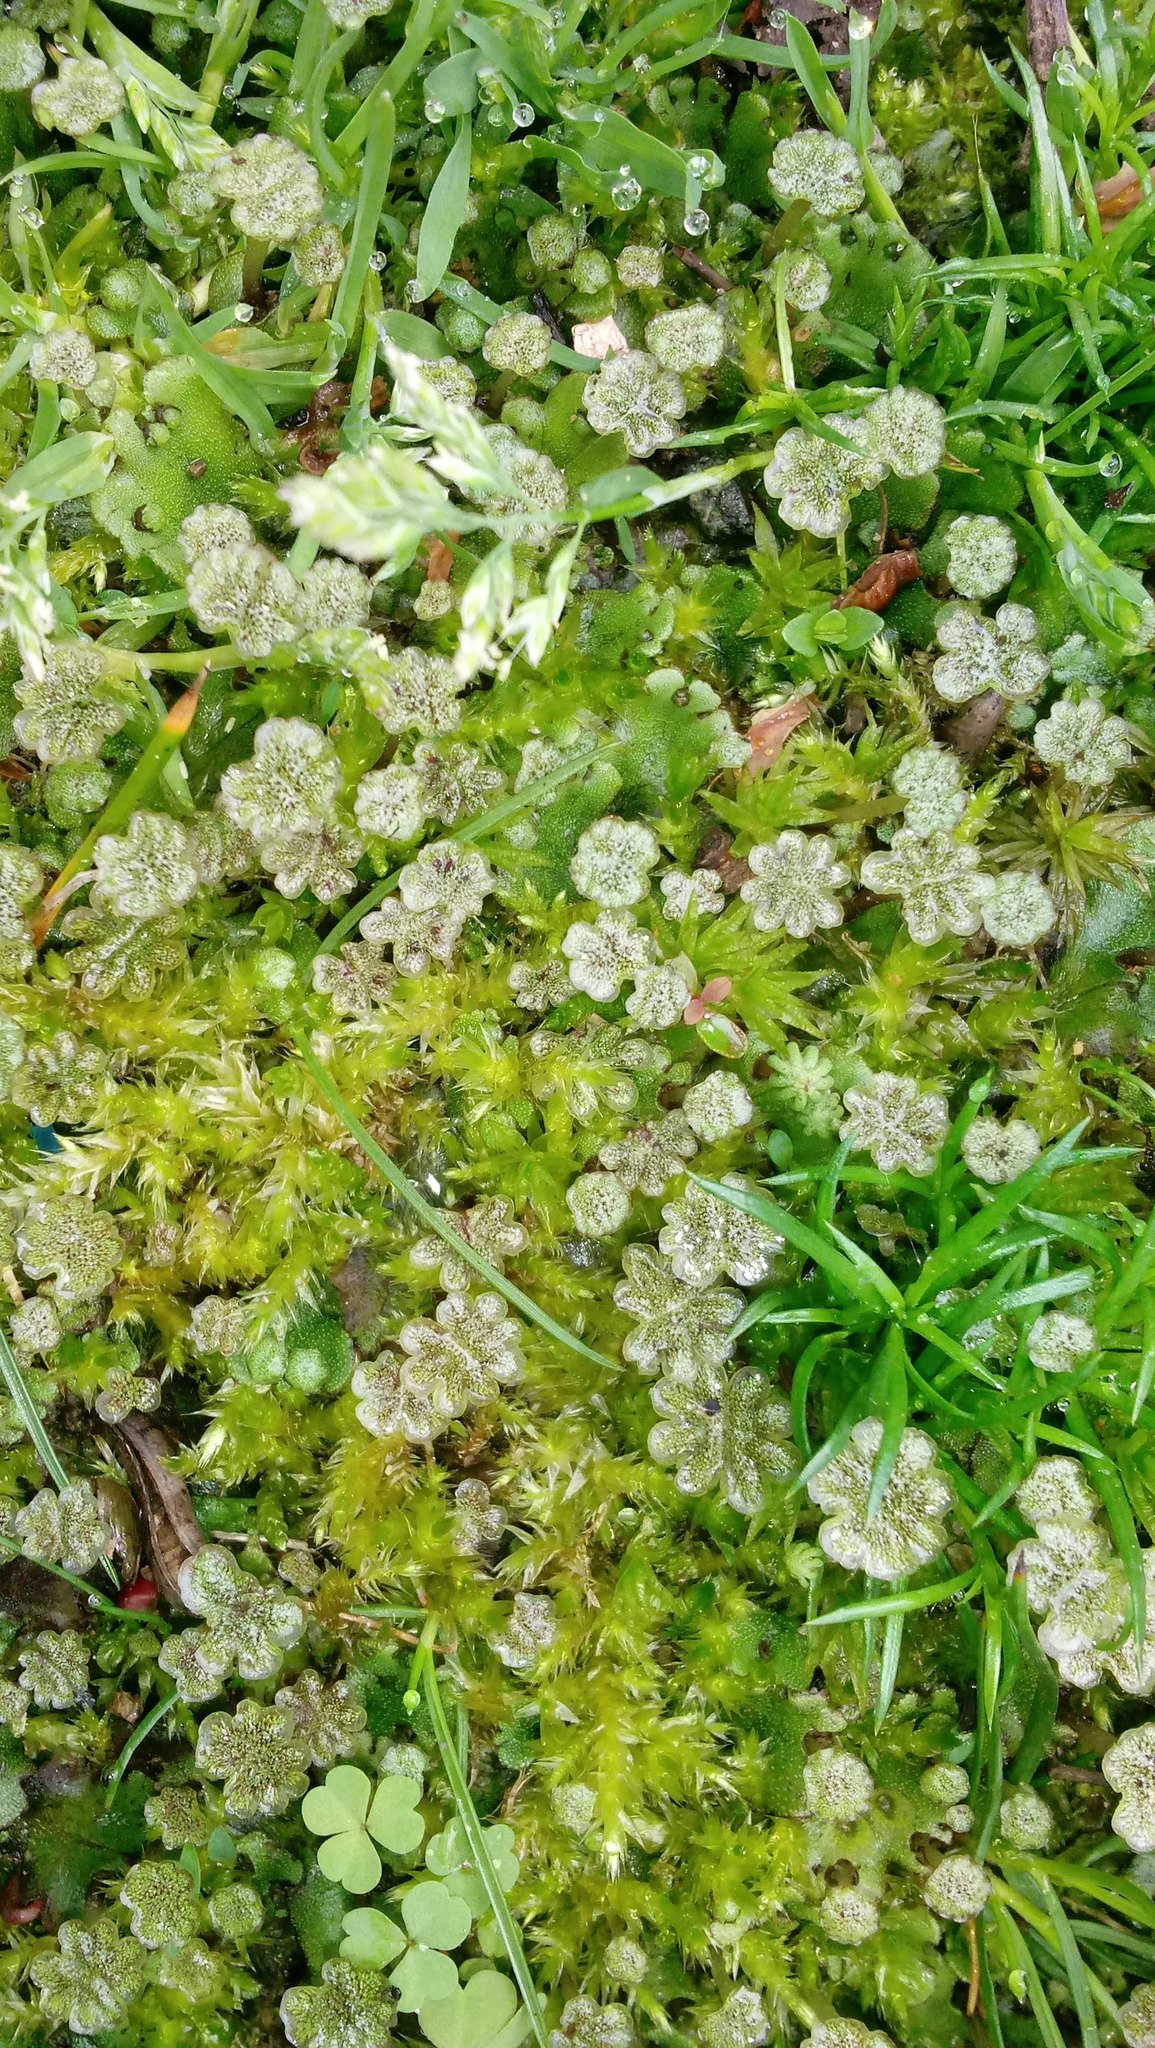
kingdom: Plantae
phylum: Marchantiophyta
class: Marchantiopsida
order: Marchantiales
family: Marchantiaceae
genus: Marchantia
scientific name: Marchantia polymorpha
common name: Common liverwort
